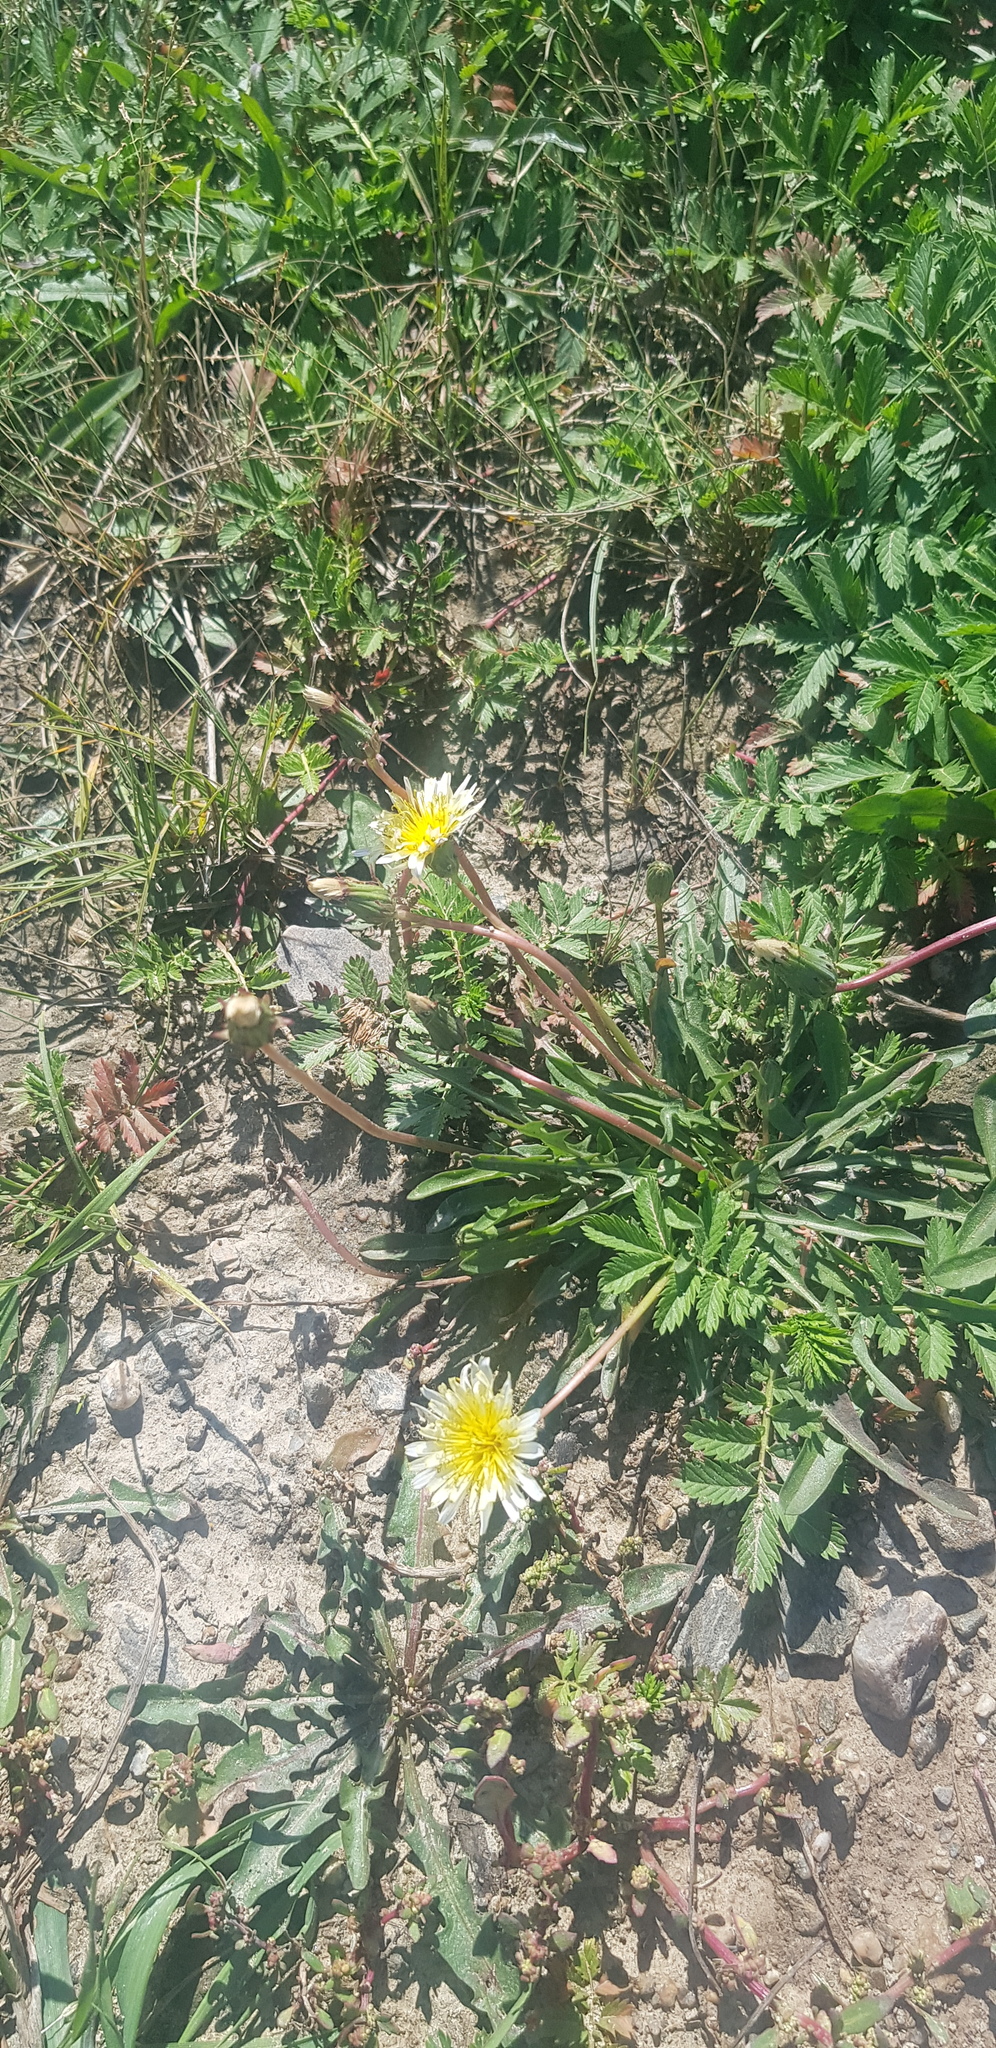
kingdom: Plantae
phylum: Tracheophyta
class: Magnoliopsida
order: Asterales
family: Asteraceae
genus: Taraxacum
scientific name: Taraxacum dealbatum
